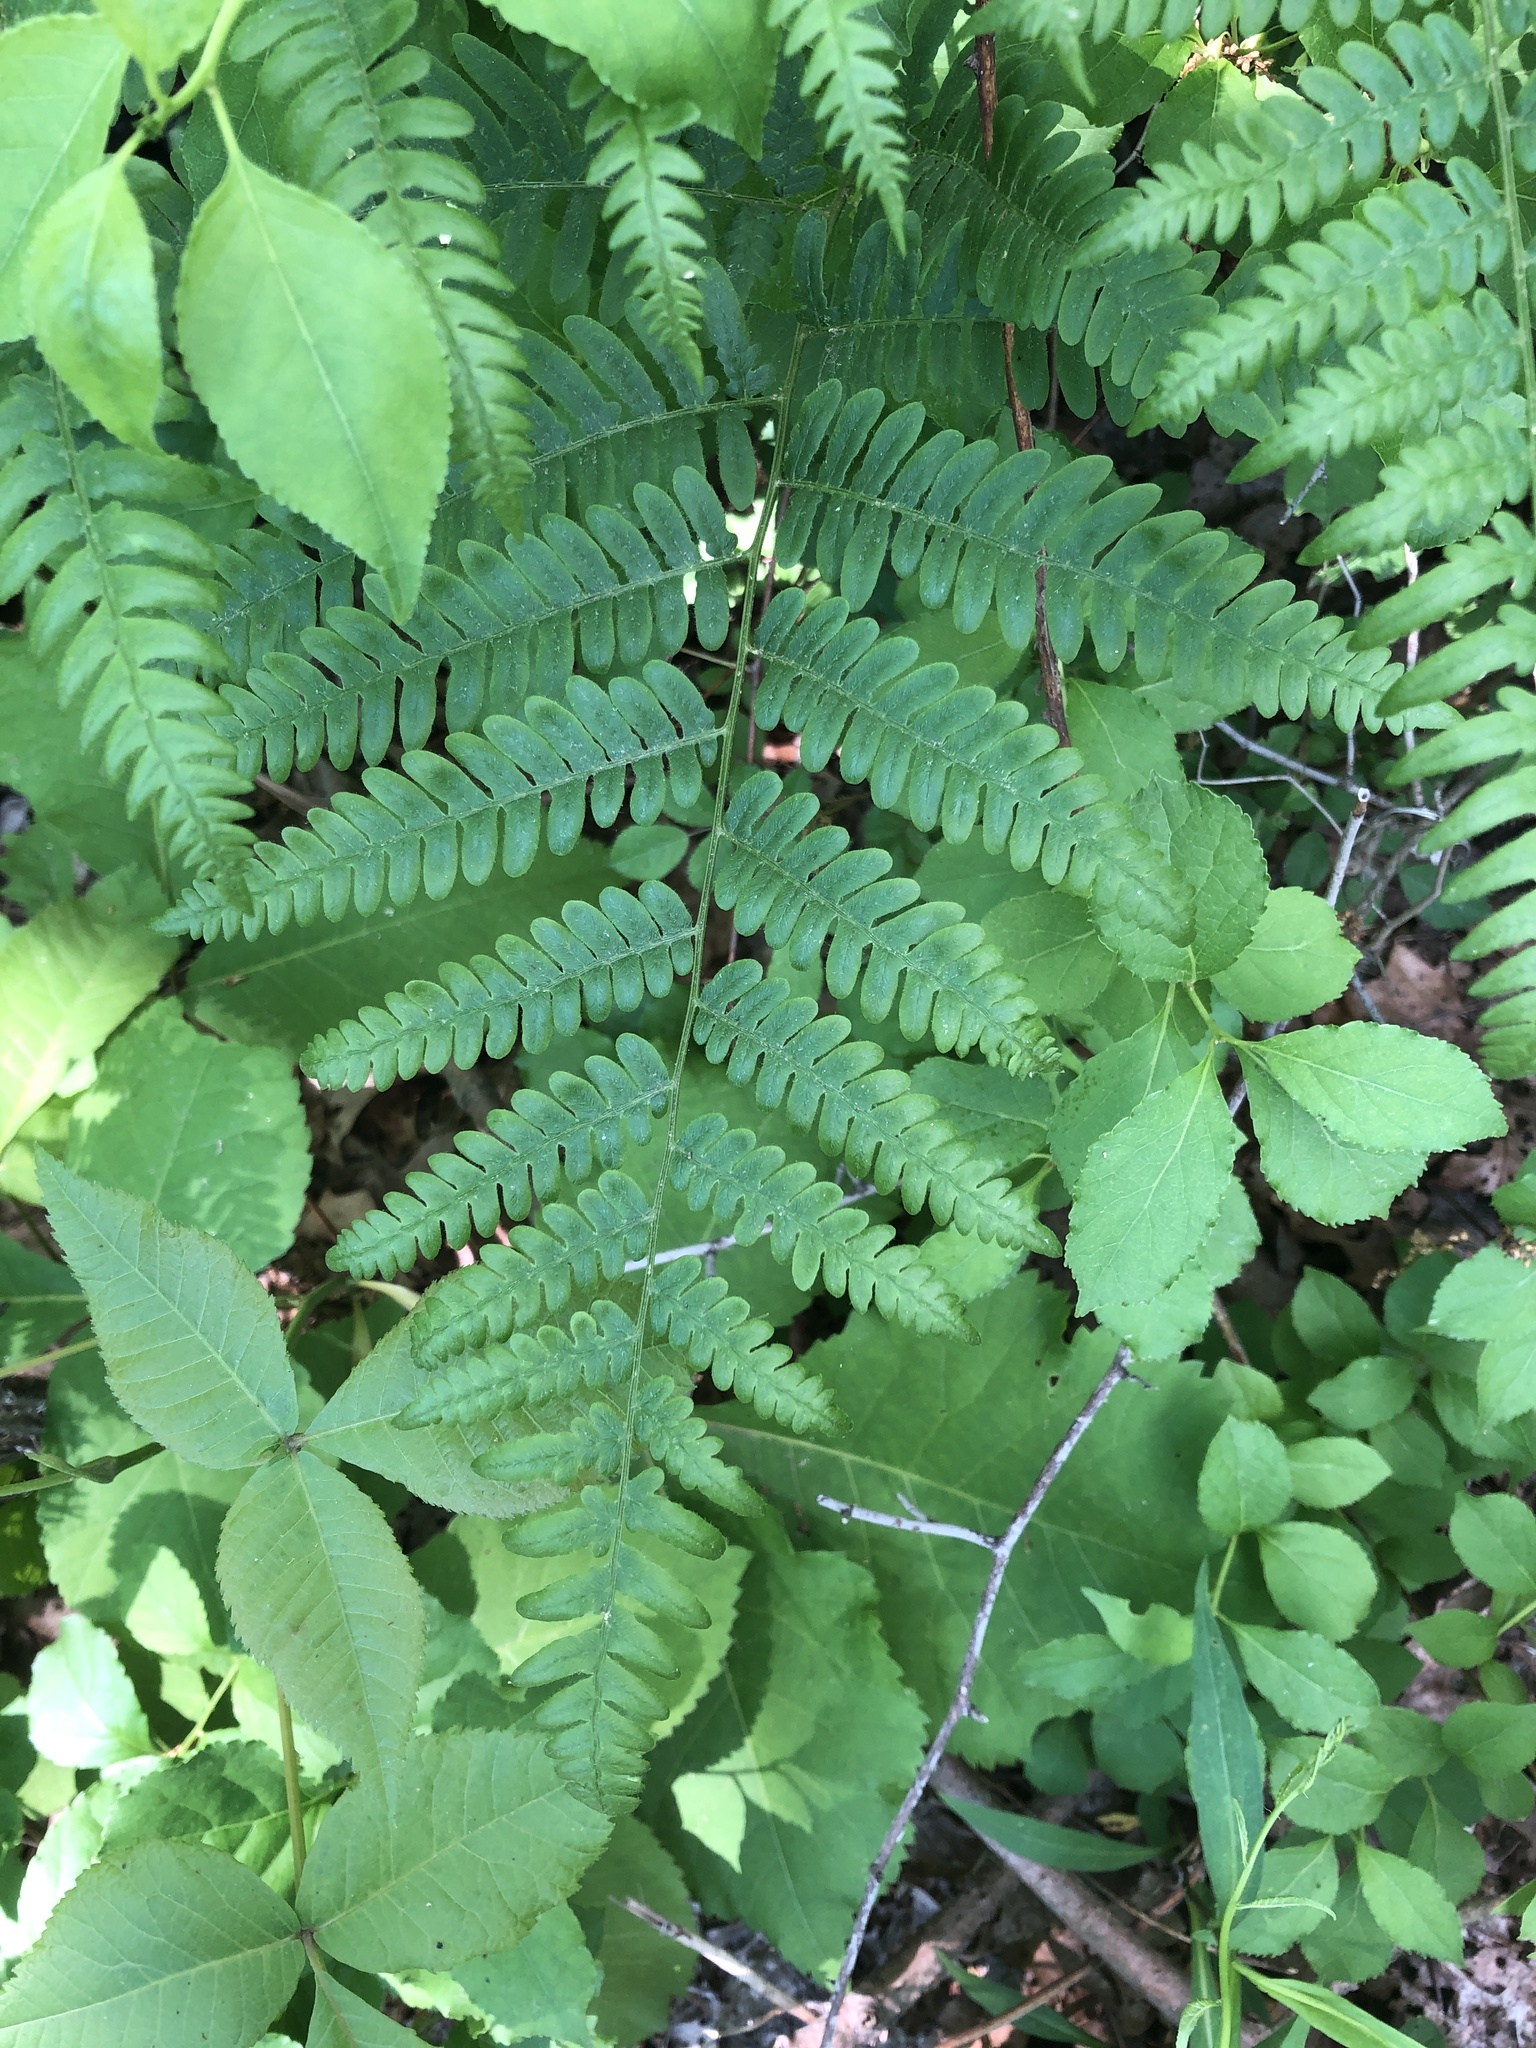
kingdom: Plantae
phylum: Tracheophyta
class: Polypodiopsida
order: Polypodiales
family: Dennstaedtiaceae
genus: Pteridium
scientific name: Pteridium aquilinum
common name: Bracken
